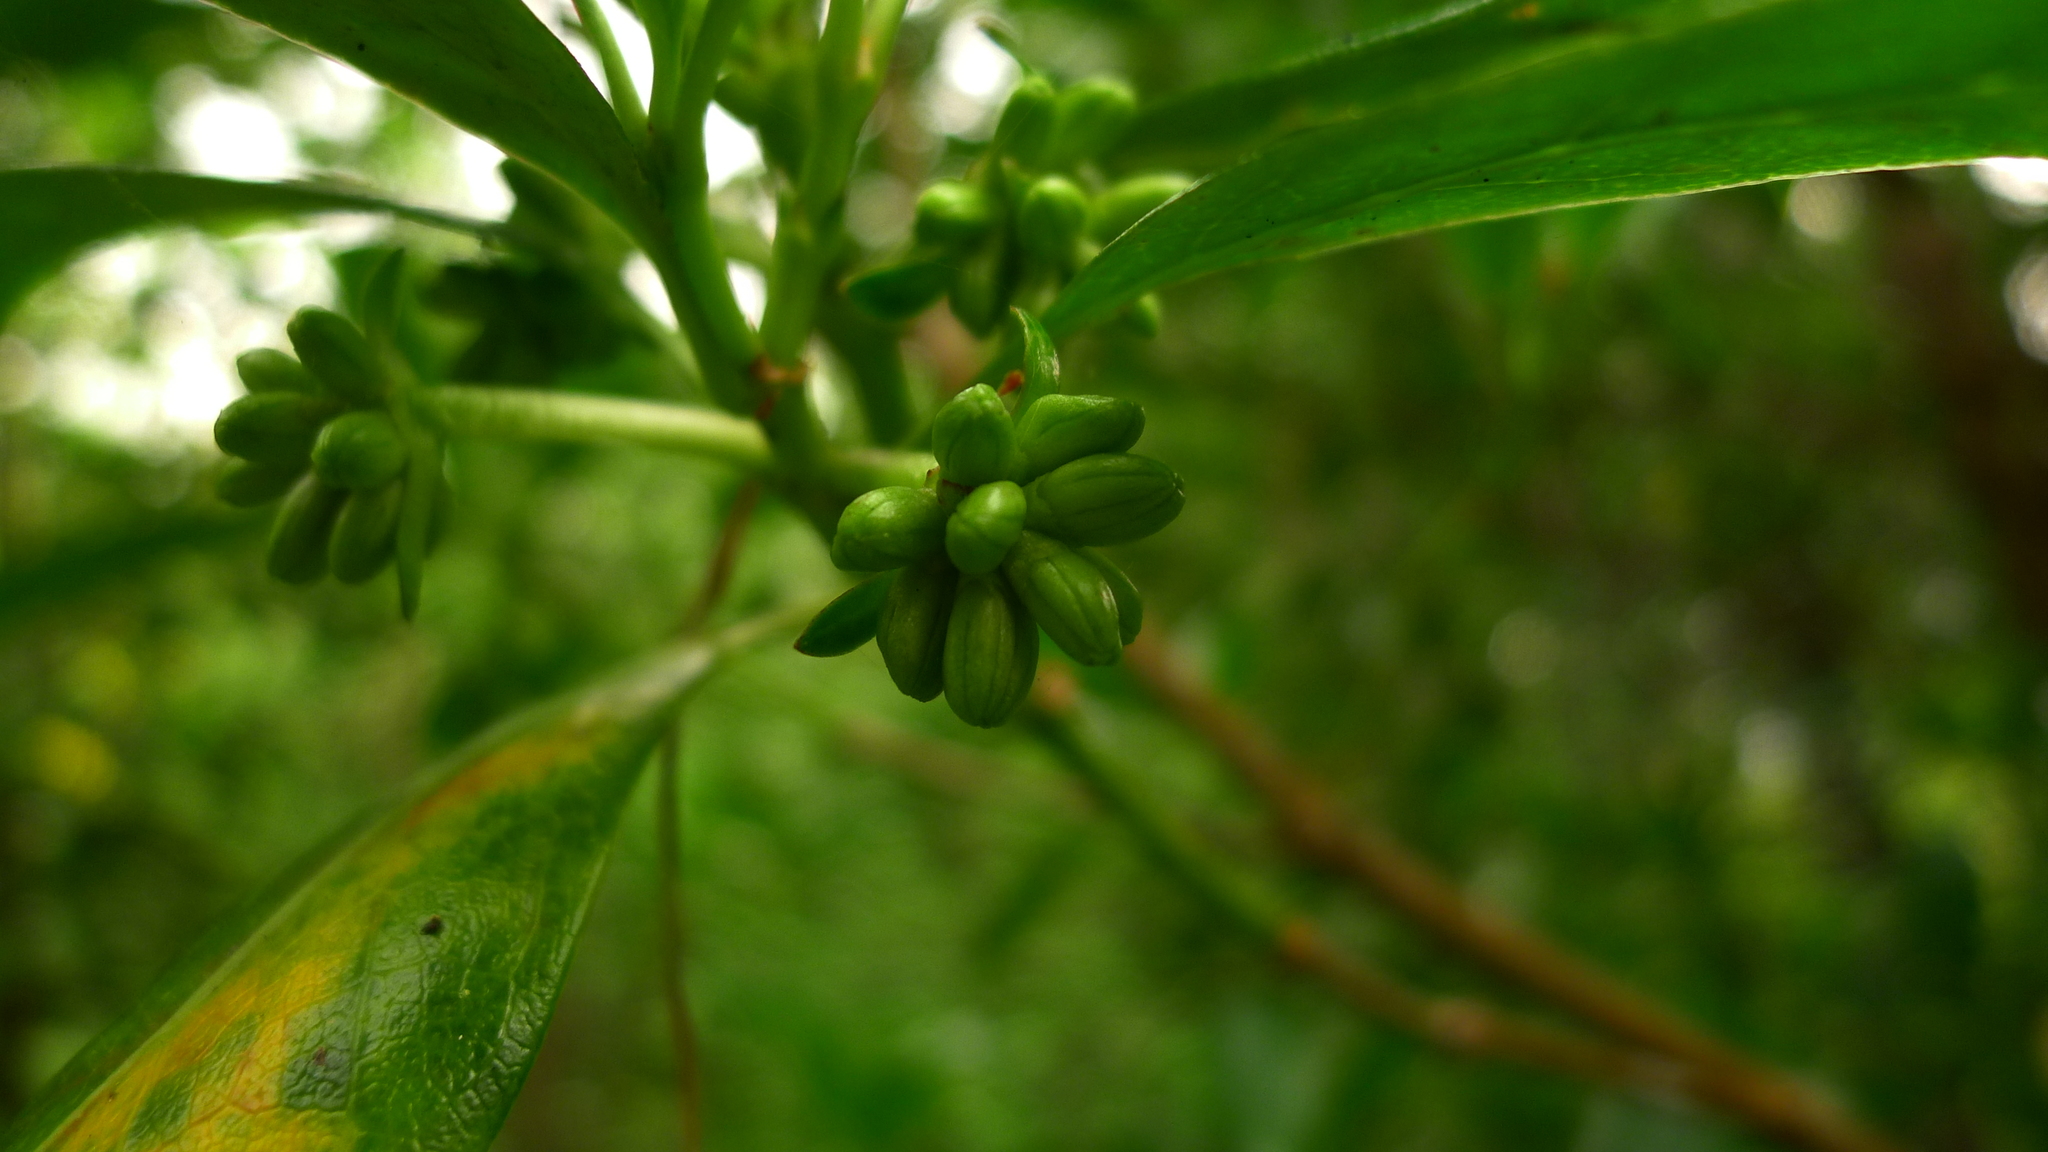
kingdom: Plantae
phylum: Tracheophyta
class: Magnoliopsida
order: Gentianales
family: Rubiaceae
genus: Coprosma
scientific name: Coprosma lucida
